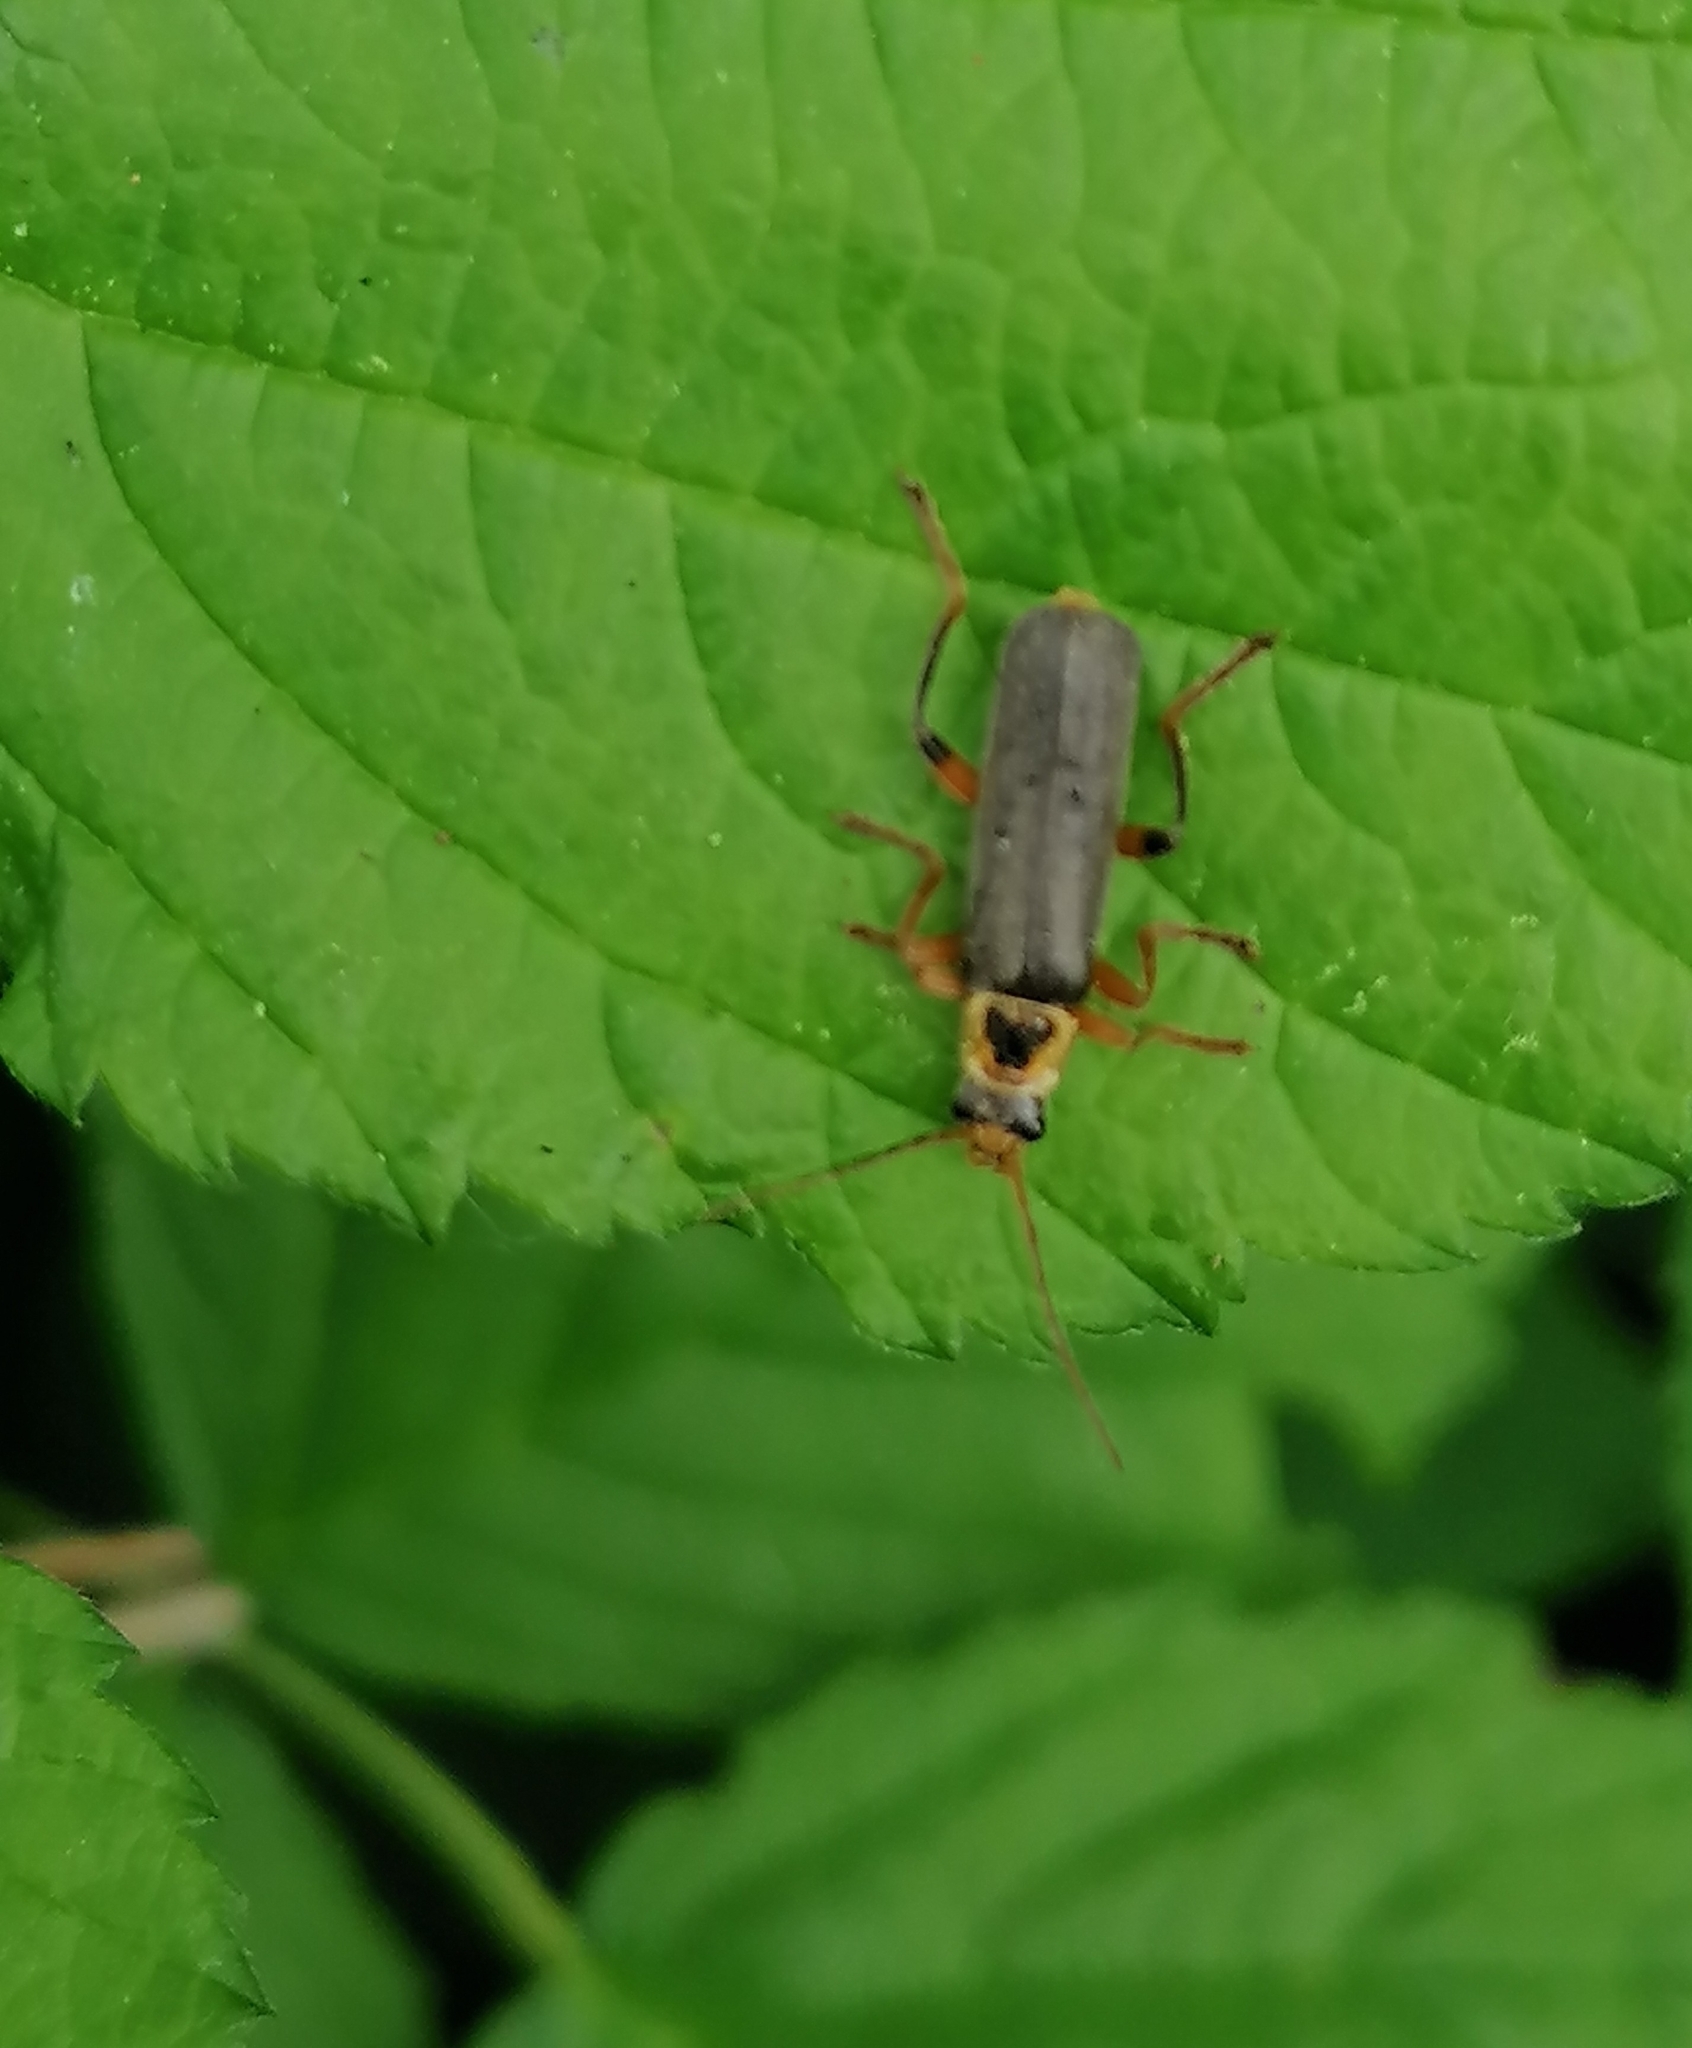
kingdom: Animalia
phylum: Arthropoda
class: Insecta
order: Coleoptera
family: Cantharidae
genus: Cantharis
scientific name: Cantharis nigricans
